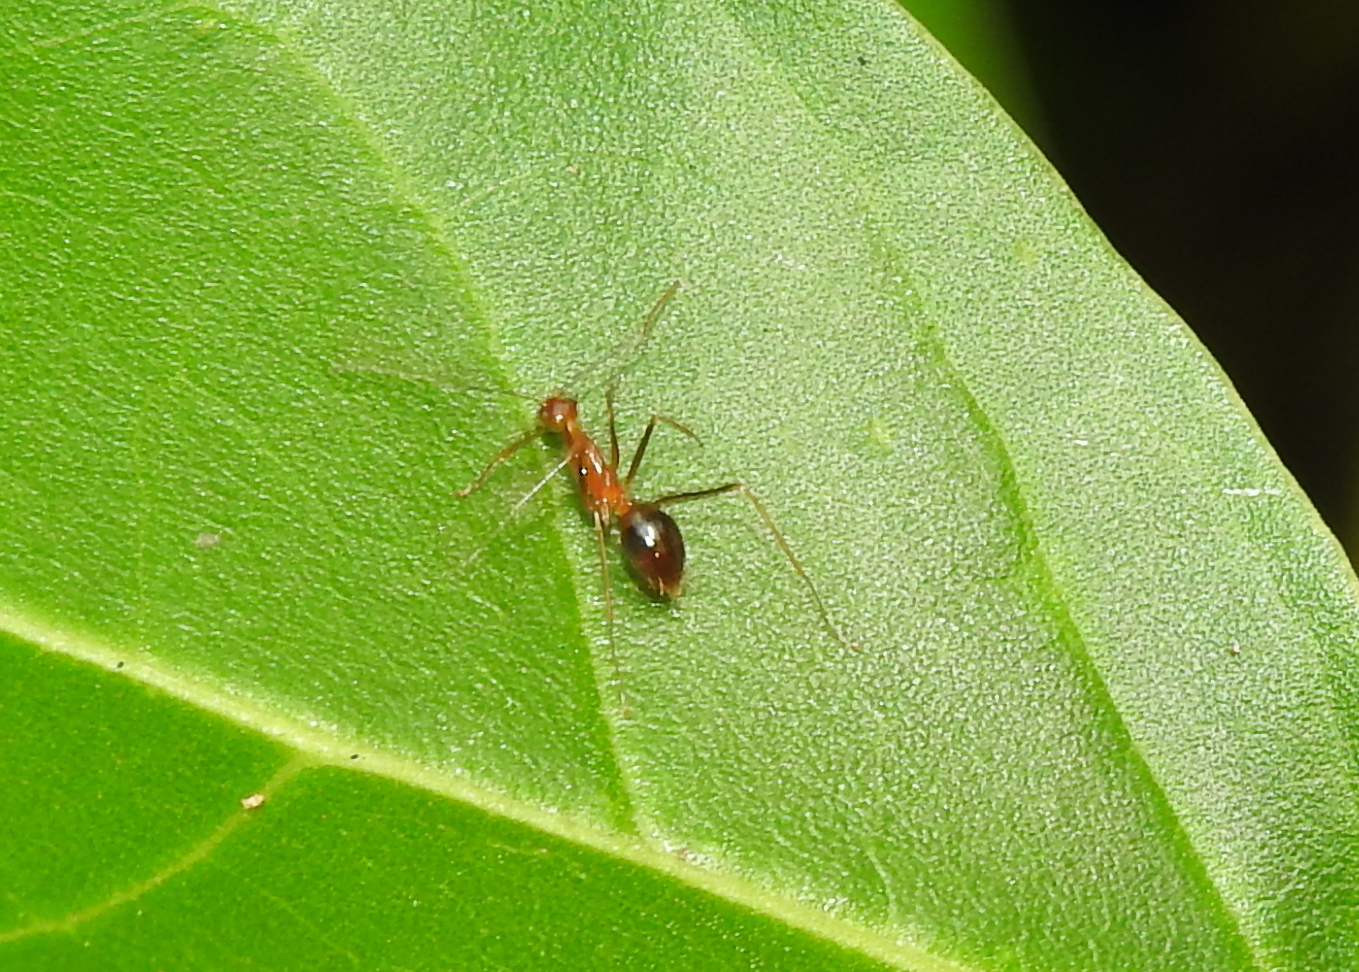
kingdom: Animalia
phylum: Arthropoda
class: Insecta
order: Hymenoptera
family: Formicidae
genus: Anoplolepis
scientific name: Anoplolepis gracilipes
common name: Ant
